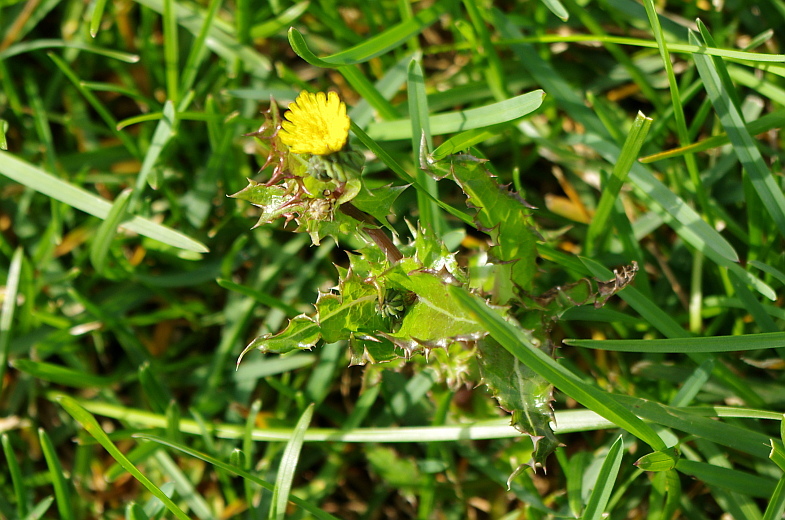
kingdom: Plantae
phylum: Tracheophyta
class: Magnoliopsida
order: Asterales
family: Asteraceae
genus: Sonchus
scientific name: Sonchus asper
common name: Prickly sow-thistle
